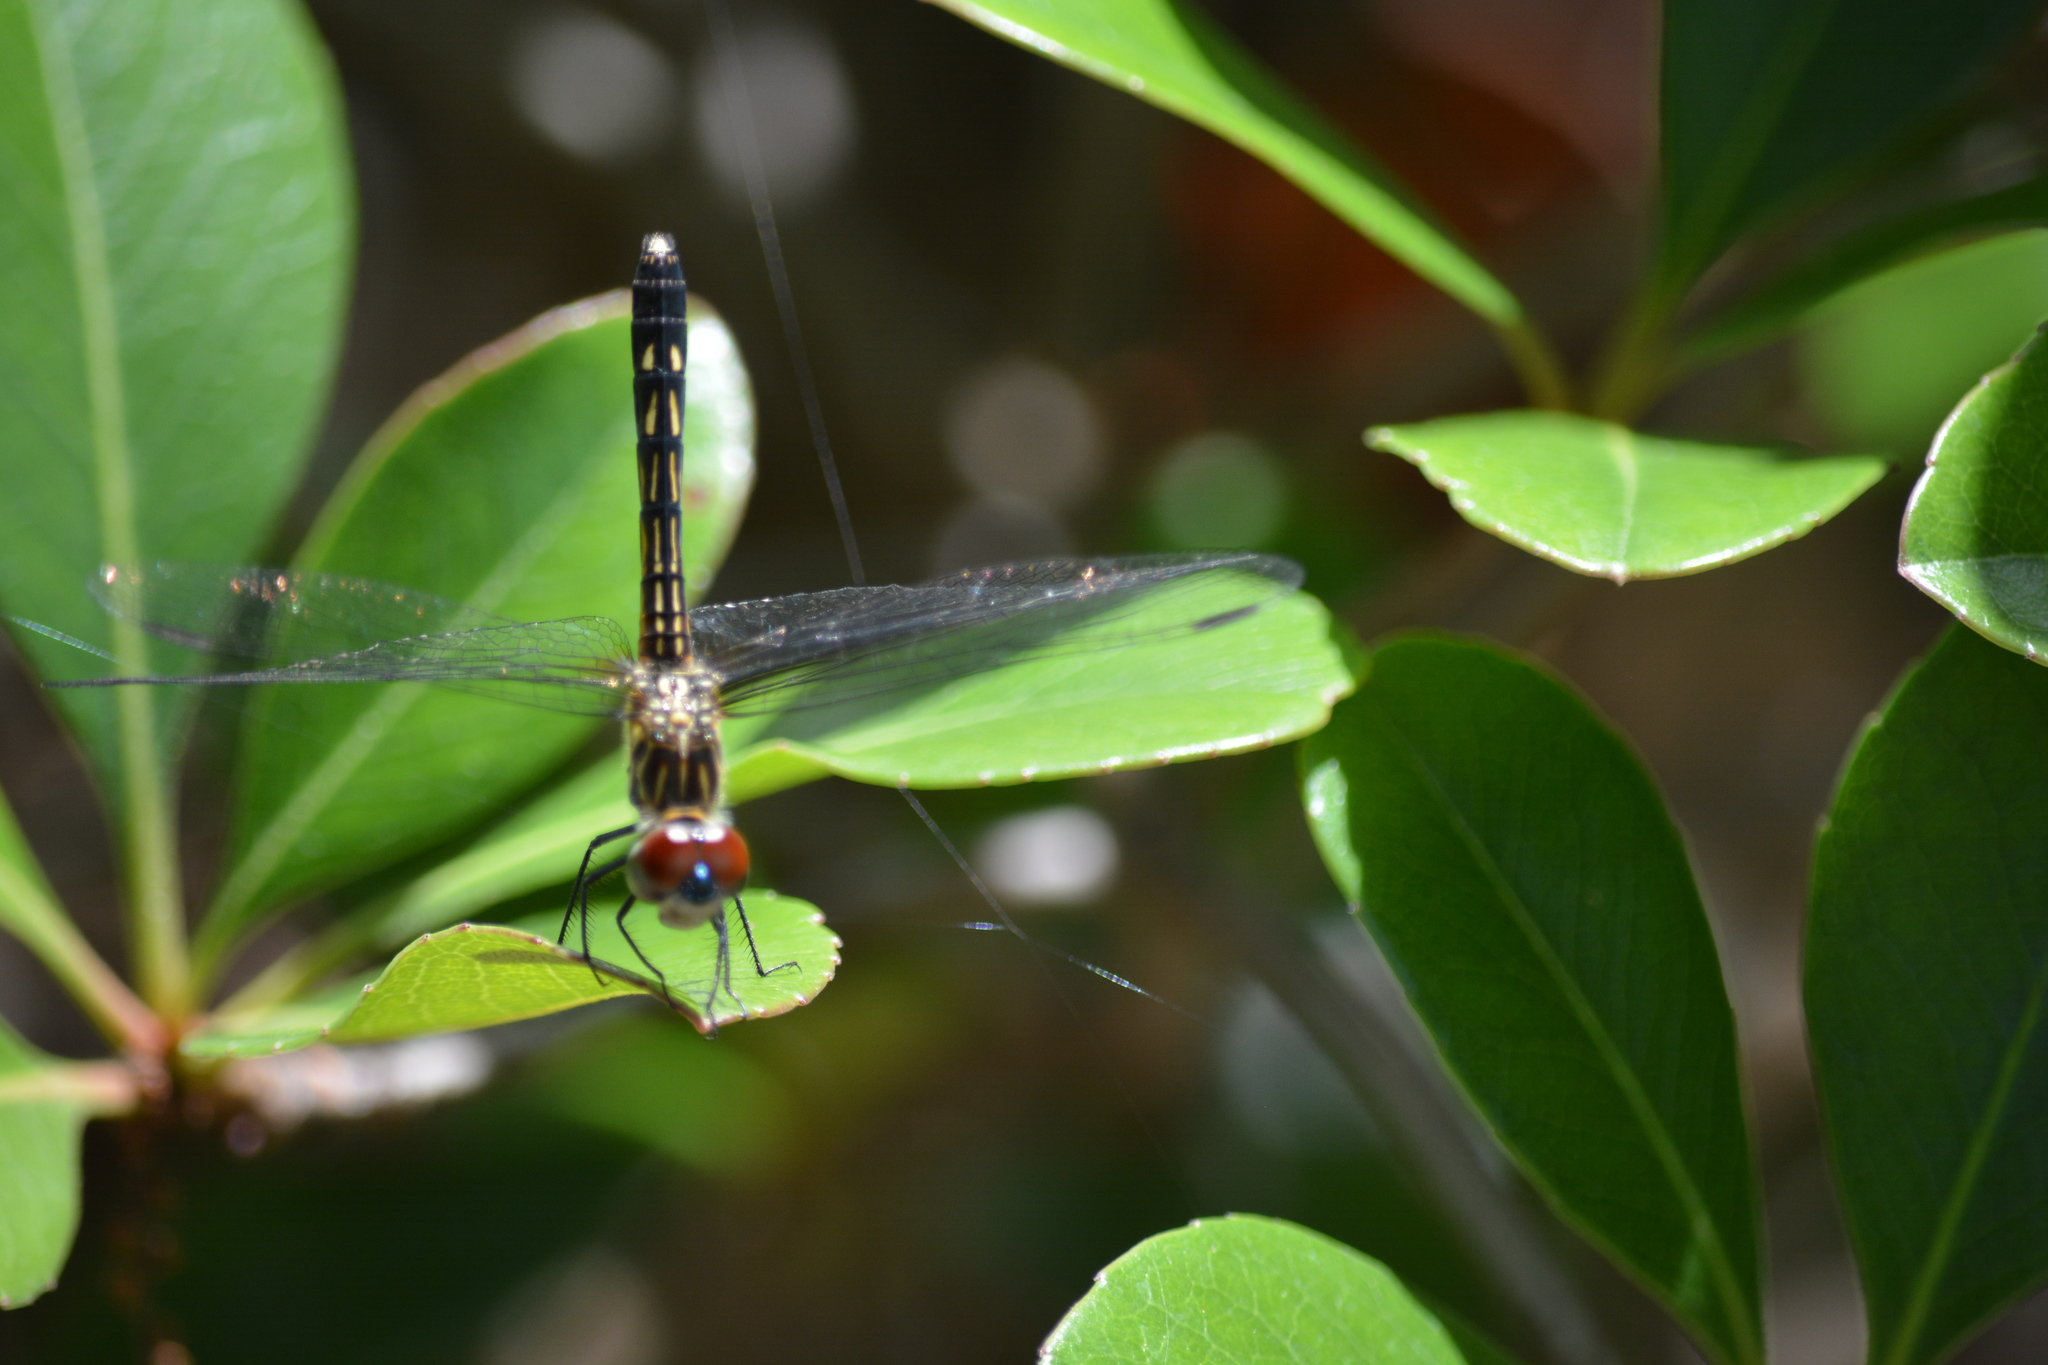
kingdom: Animalia
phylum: Arthropoda
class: Insecta
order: Odonata
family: Libellulidae
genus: Pachydiplax
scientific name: Pachydiplax longipennis
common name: Blue dasher
